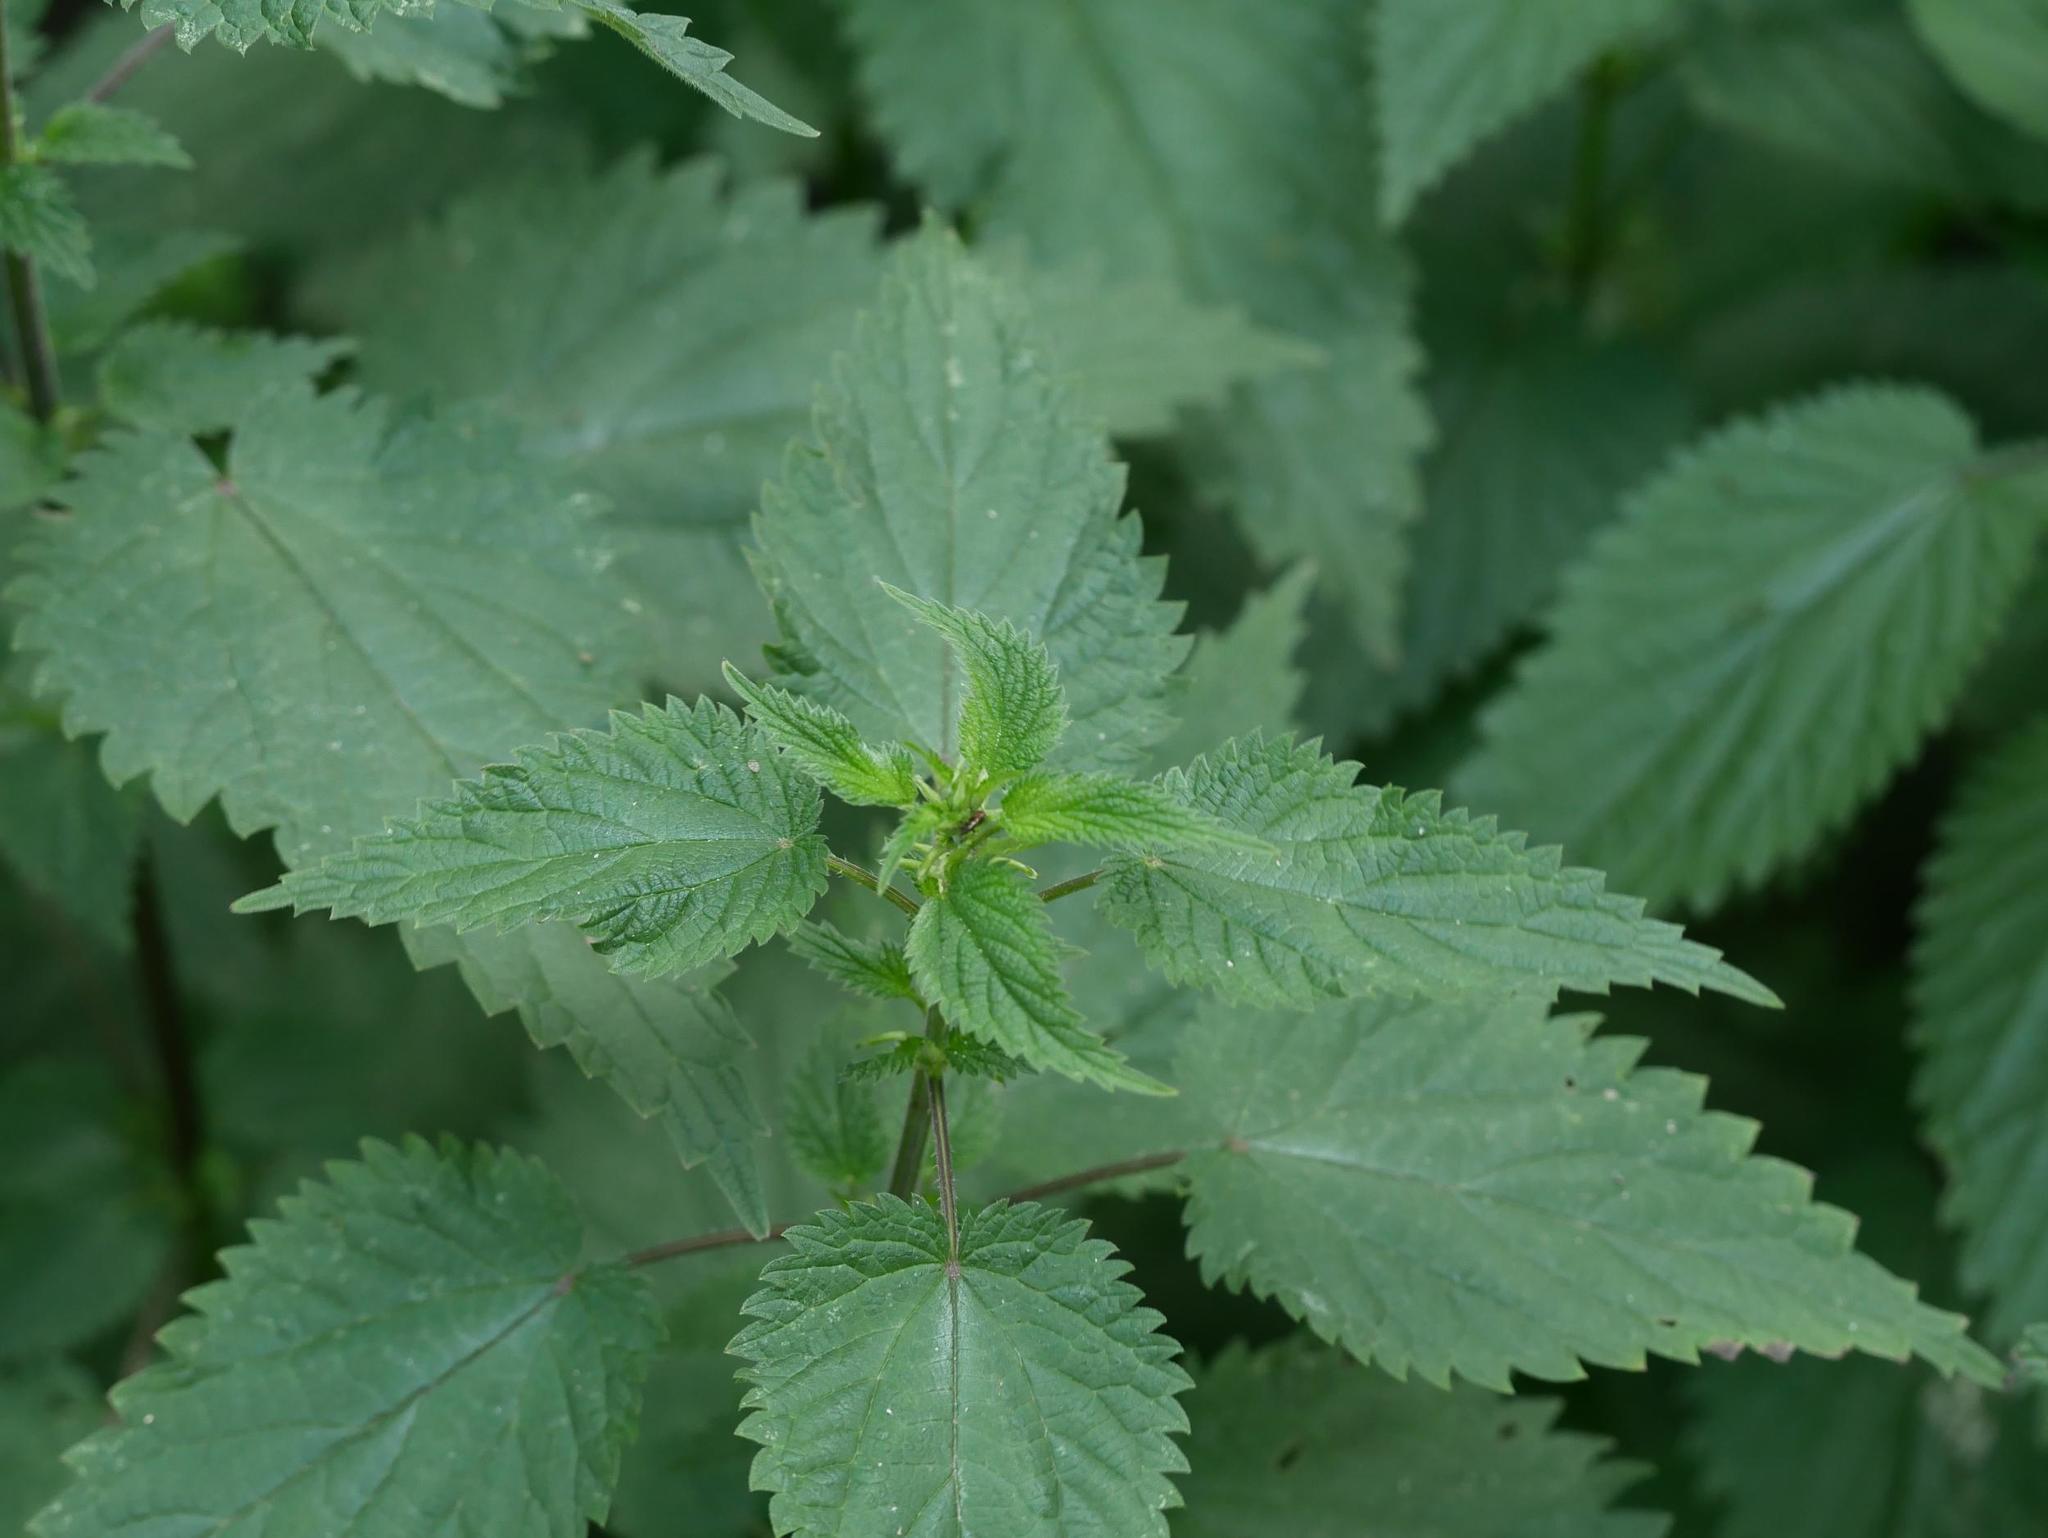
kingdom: Plantae
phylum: Tracheophyta
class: Magnoliopsida
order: Rosales
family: Urticaceae
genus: Urtica
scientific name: Urtica dioica
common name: Common nettle
